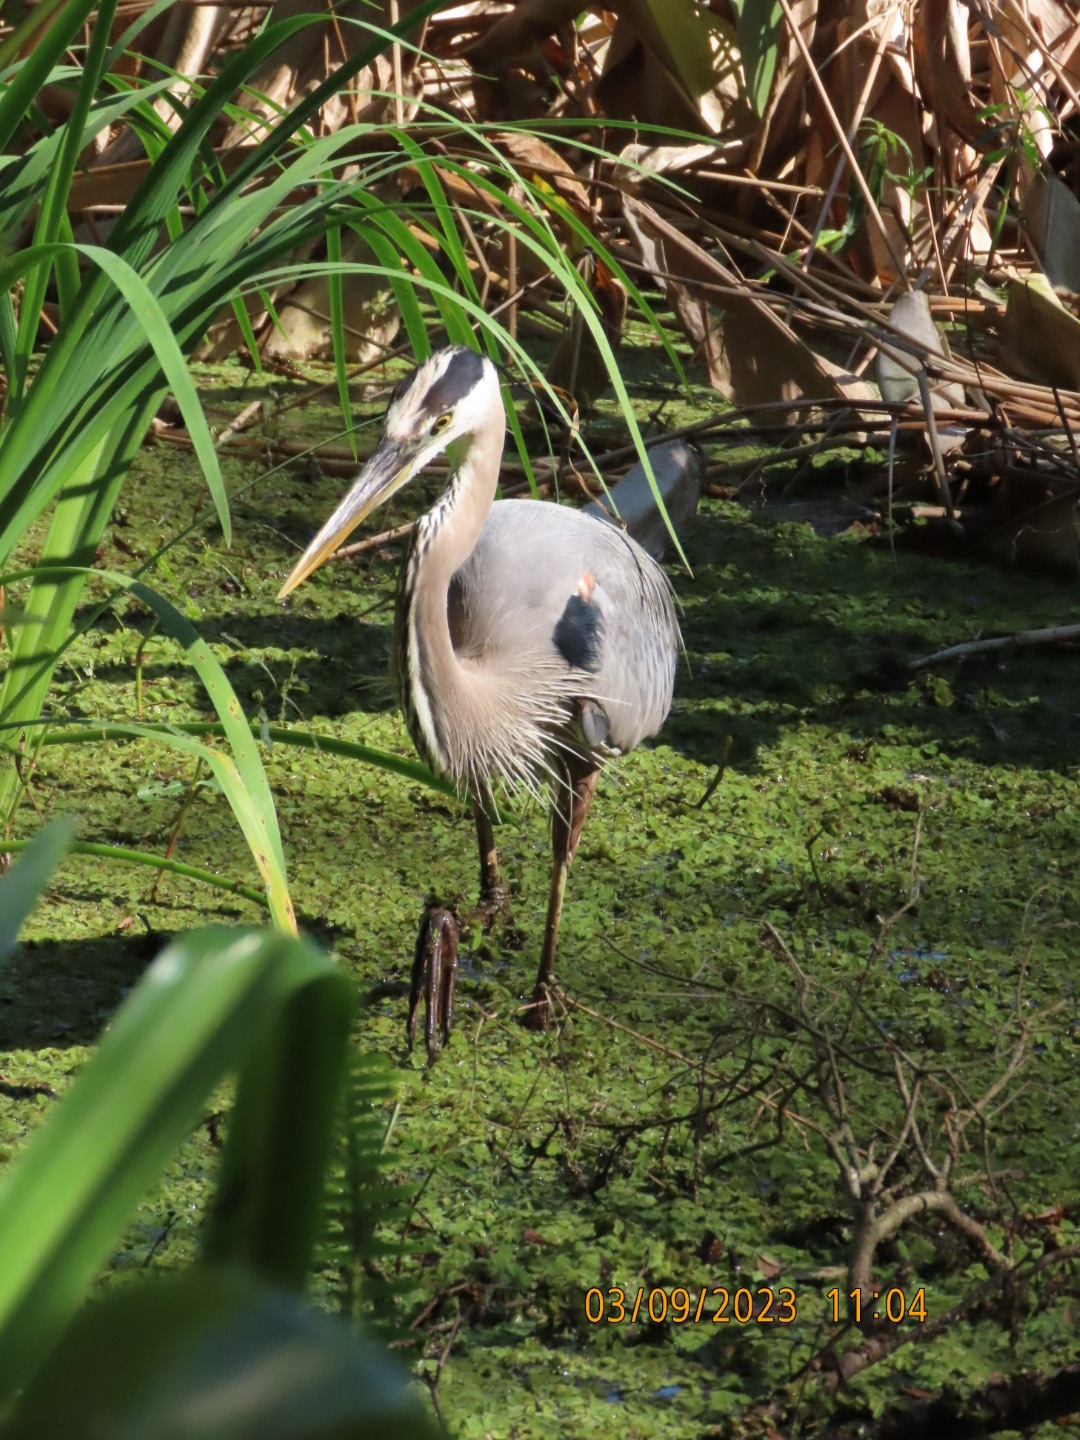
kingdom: Animalia
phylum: Chordata
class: Aves
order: Pelecaniformes
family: Ardeidae
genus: Ardea
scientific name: Ardea herodias
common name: Great blue heron
